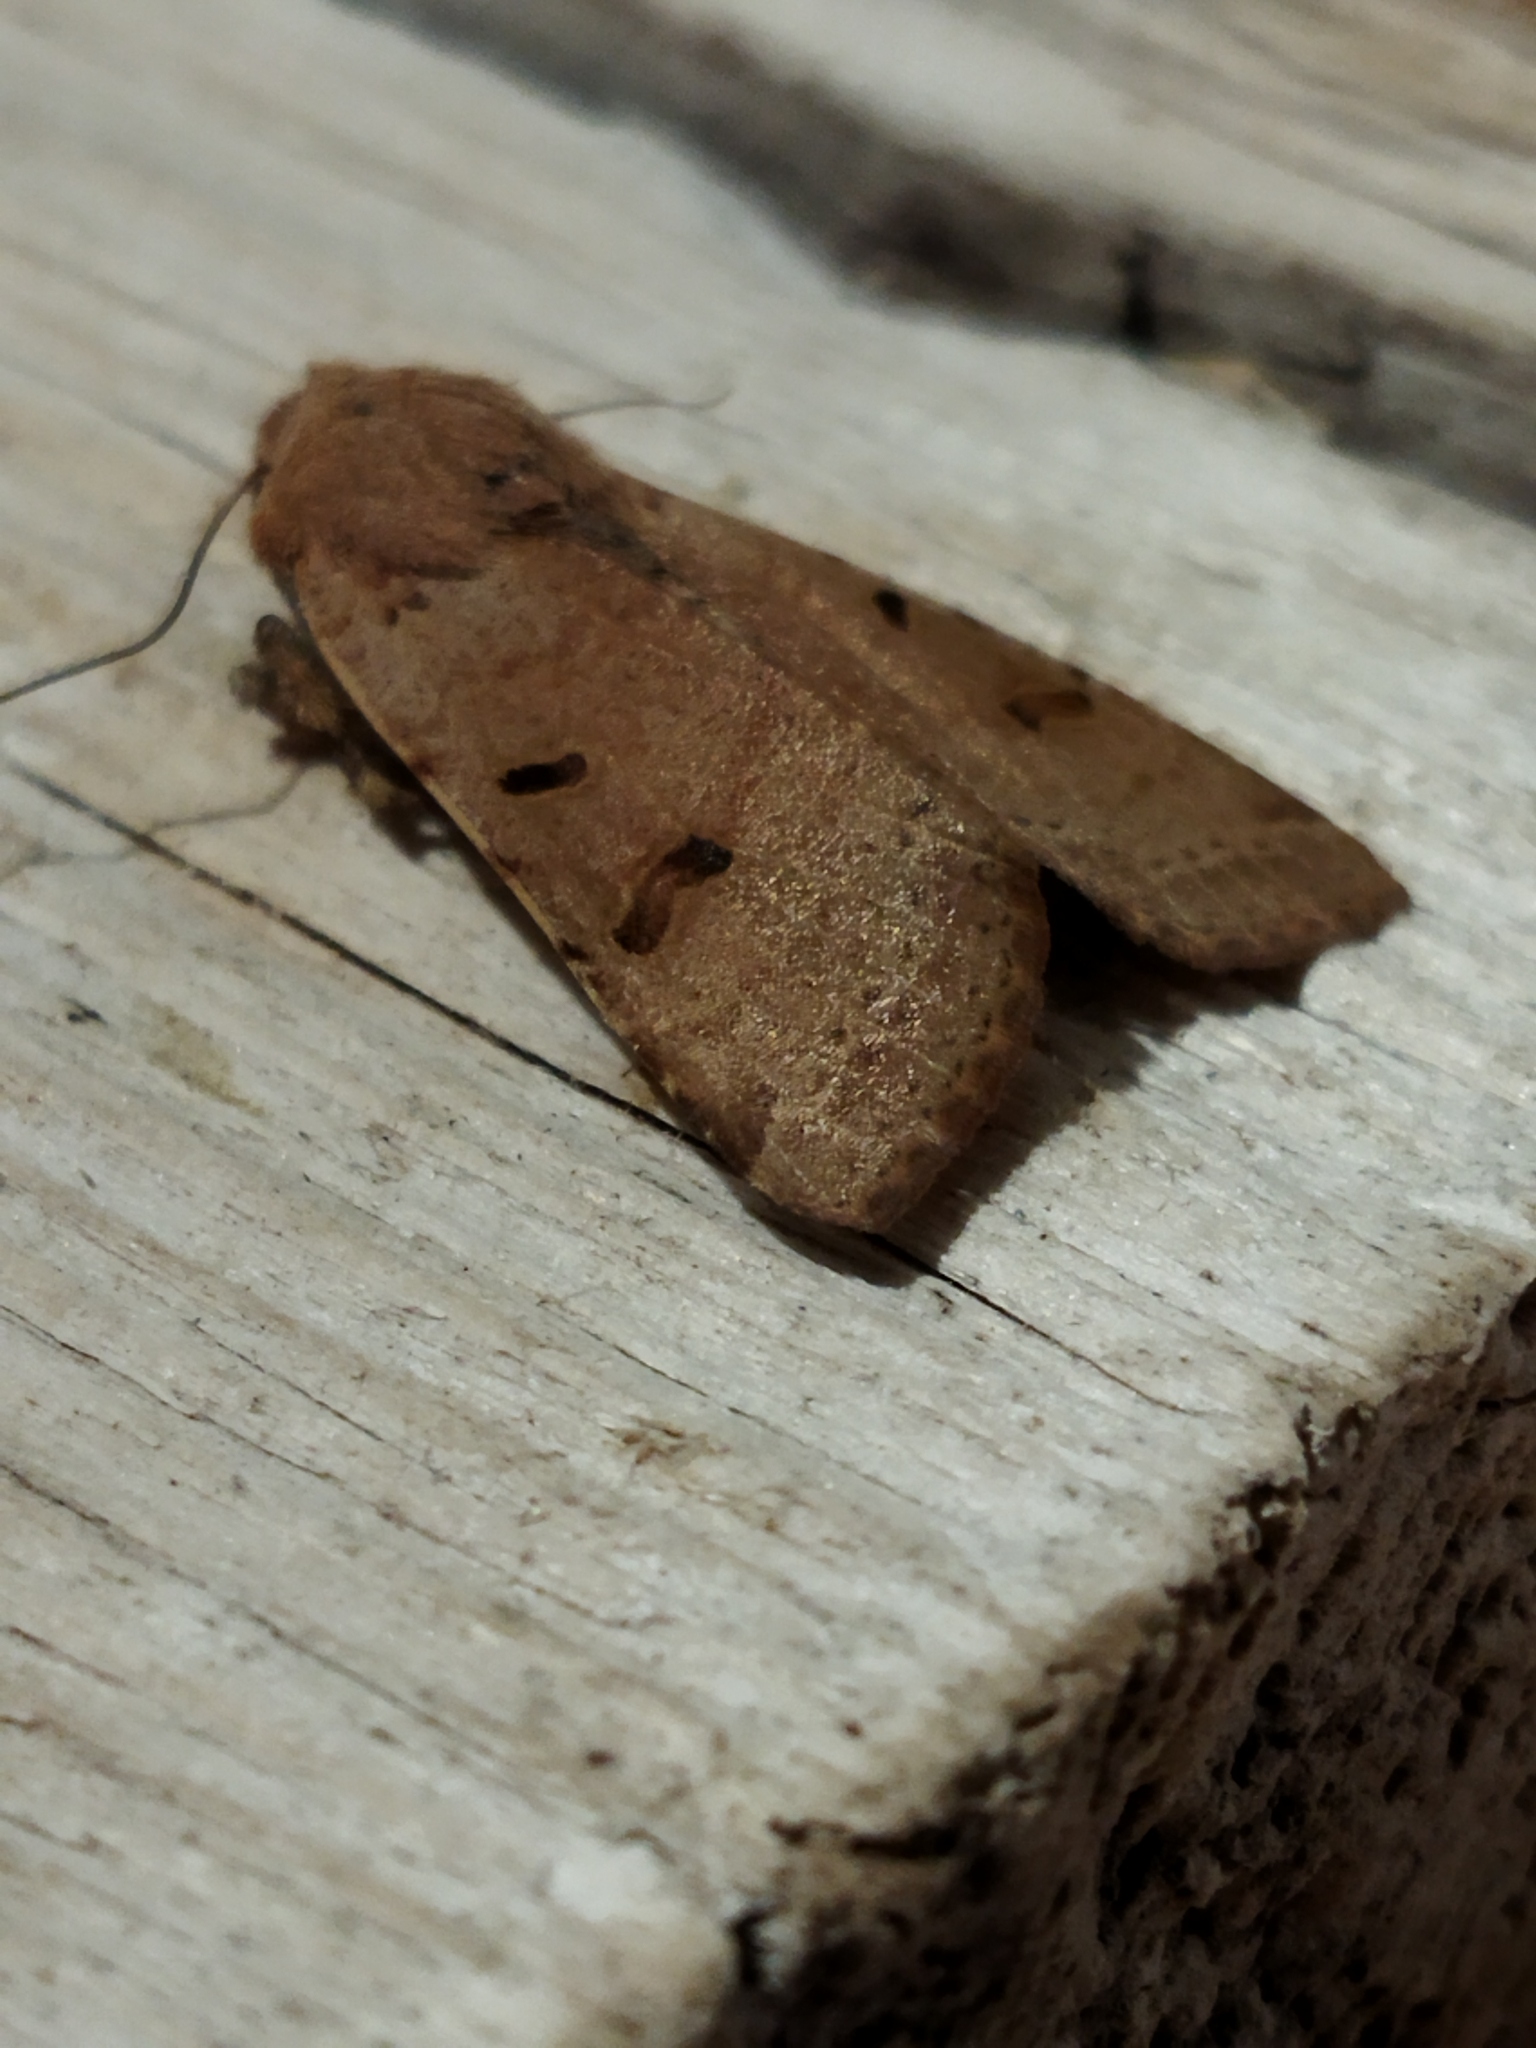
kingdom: Animalia
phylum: Arthropoda
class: Insecta
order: Lepidoptera
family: Noctuidae
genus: Agrochola
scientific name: Agrochola lychnidis
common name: Beaded chestnut
